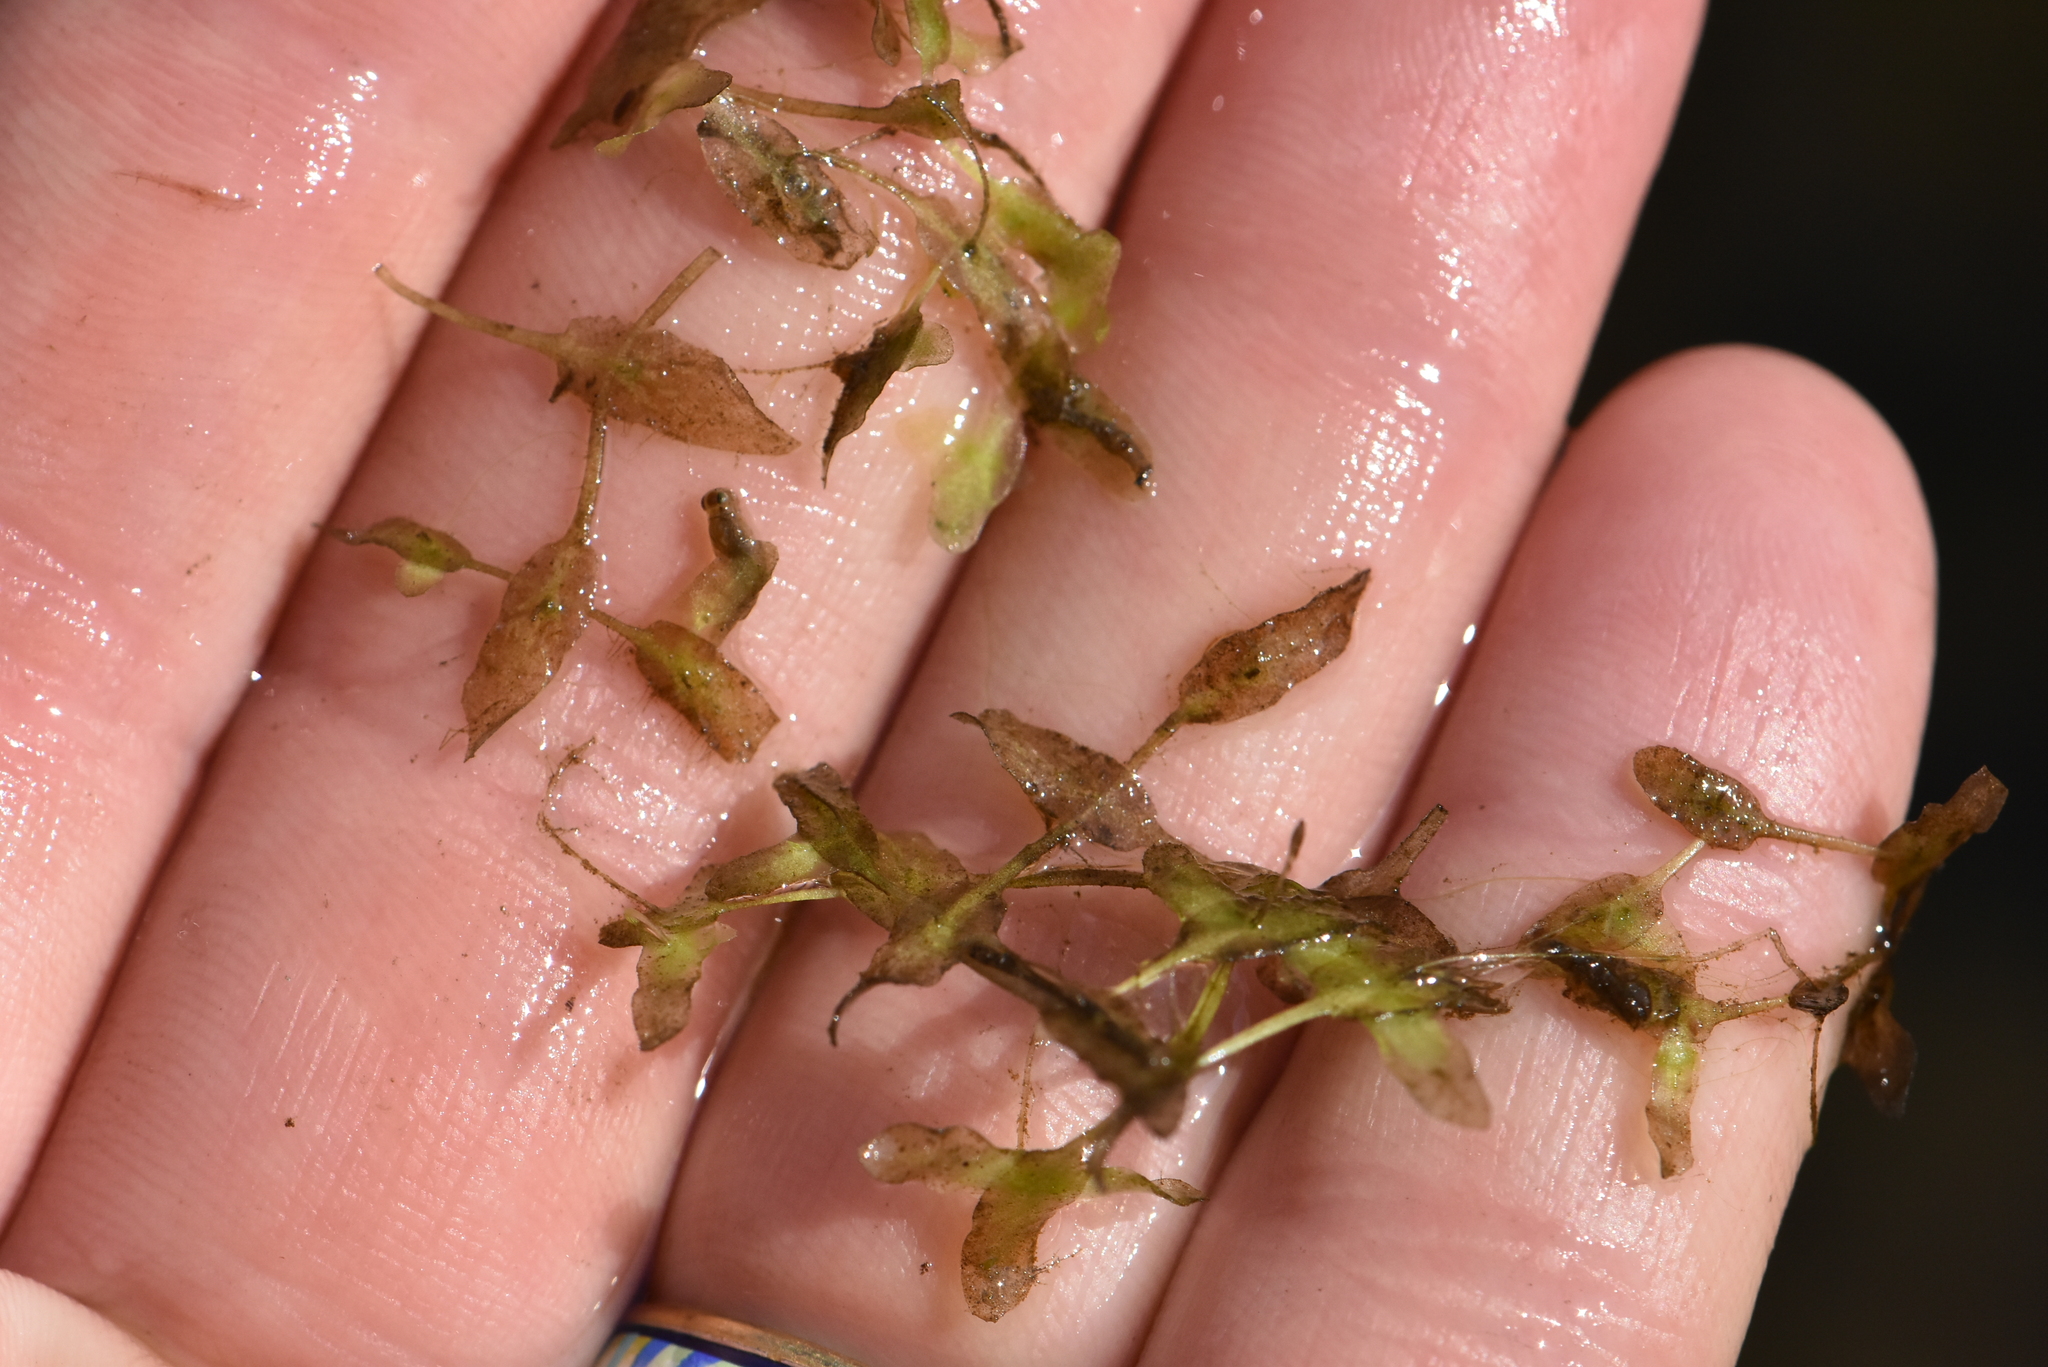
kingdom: Plantae
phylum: Tracheophyta
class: Liliopsida
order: Alismatales
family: Araceae
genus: Lemna
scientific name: Lemna trisulca
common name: Ivy-leaved duckweed
